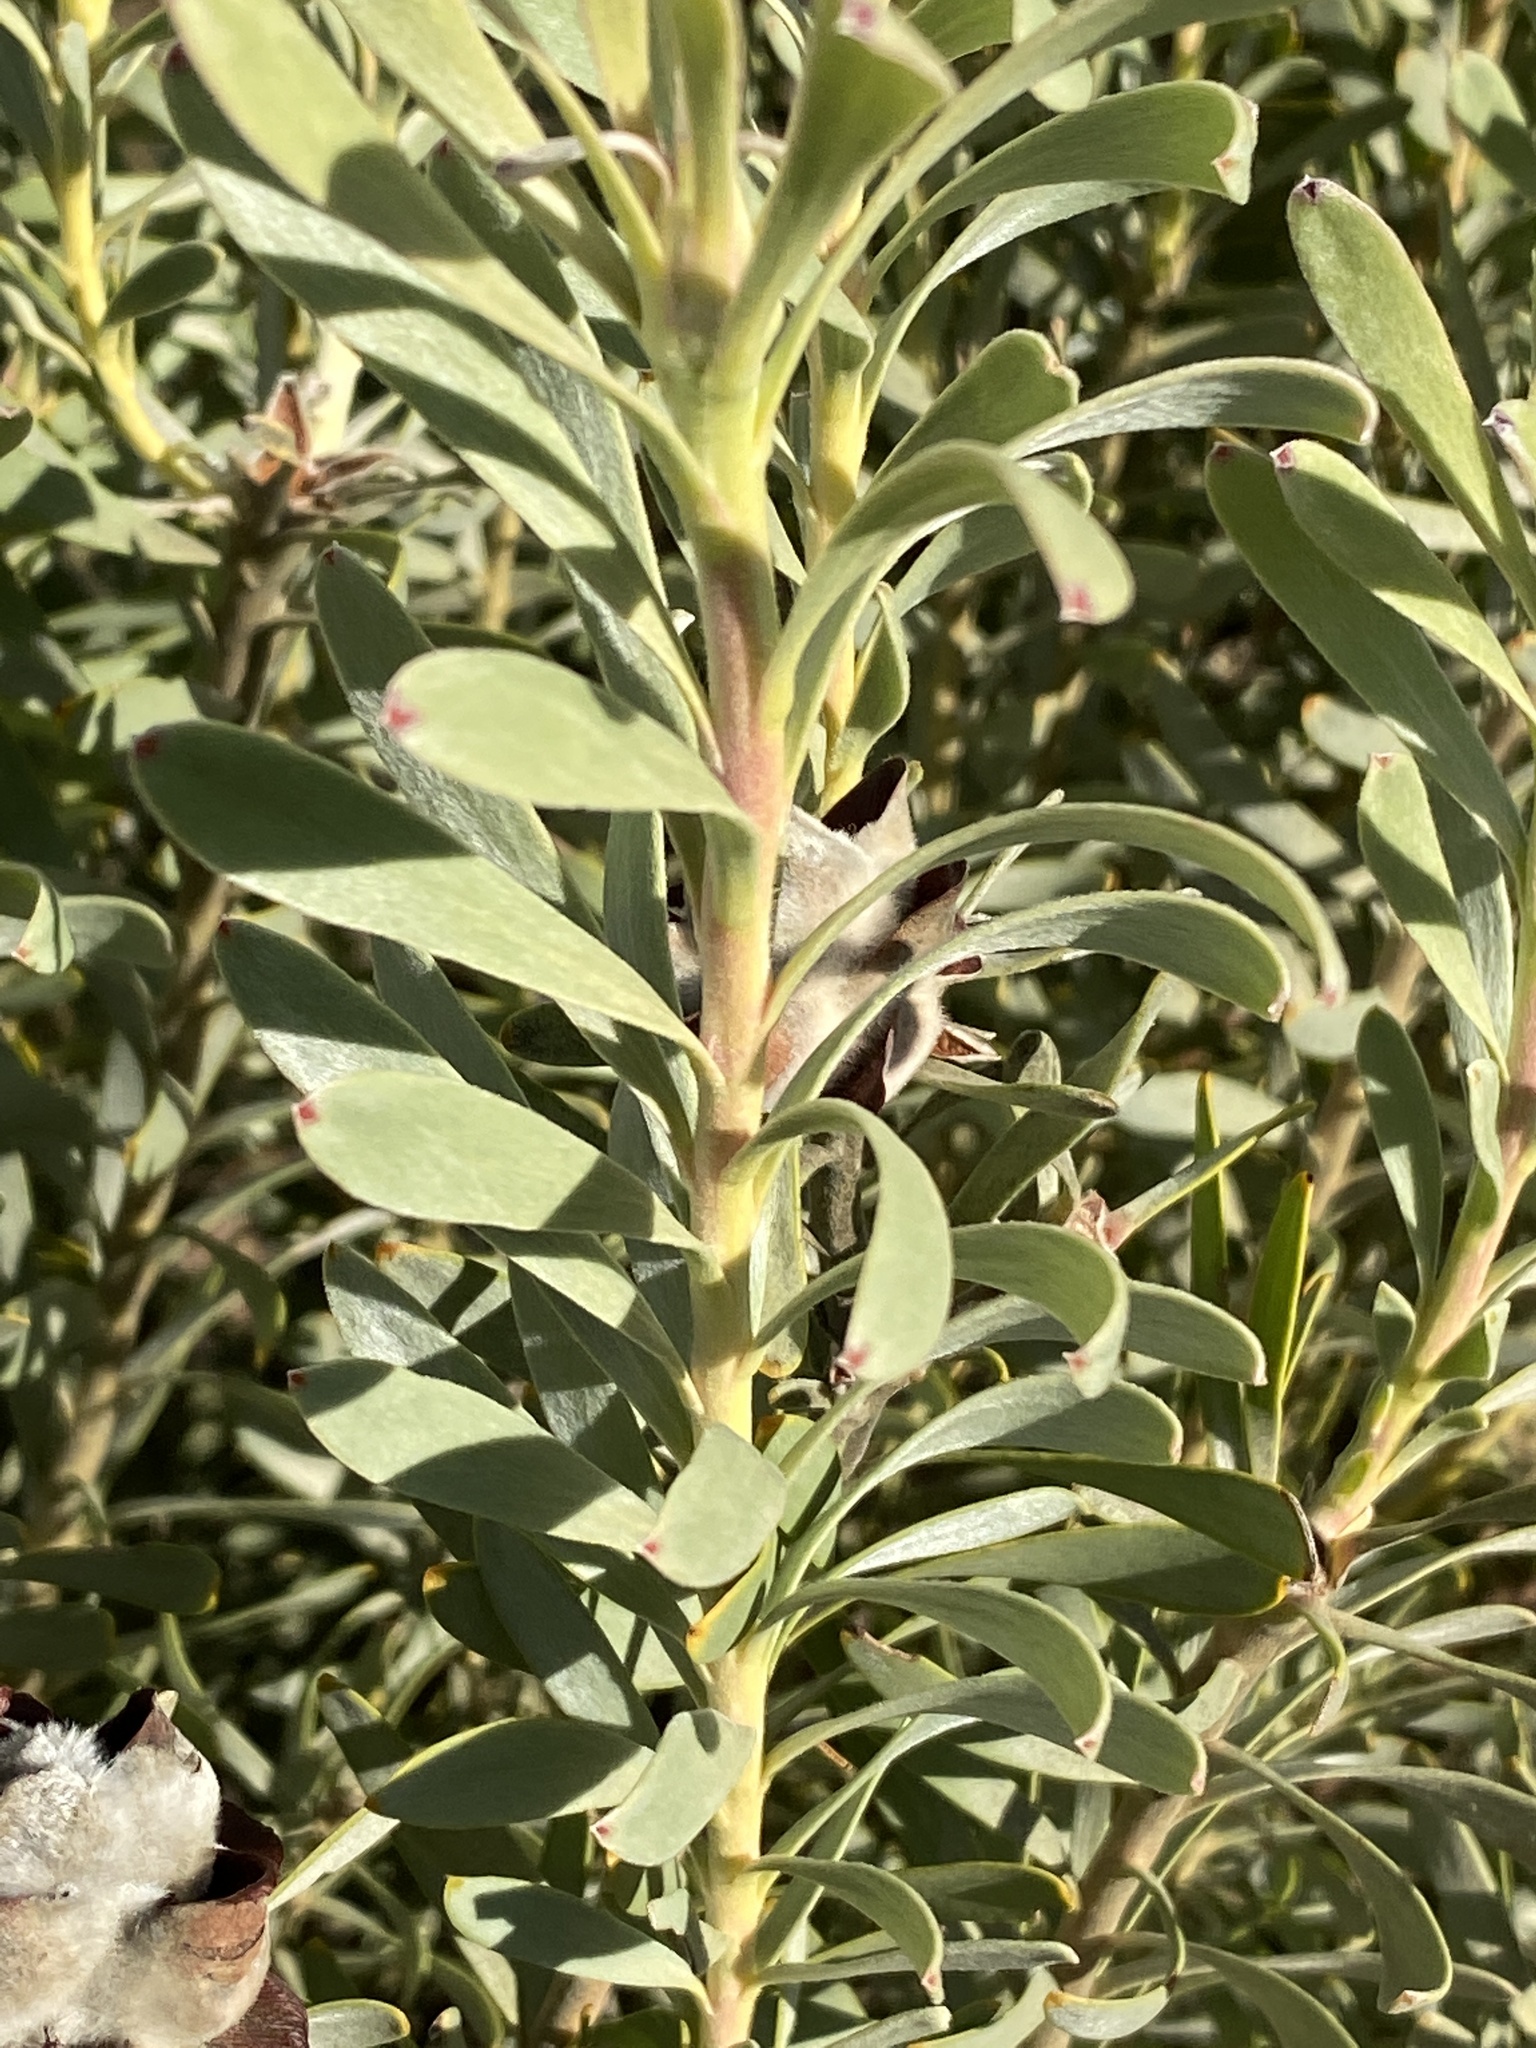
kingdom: Plantae
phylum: Tracheophyta
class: Magnoliopsida
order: Proteales
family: Proteaceae
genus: Leucadendron
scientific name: Leucadendron pubescens
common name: Grey conebush
